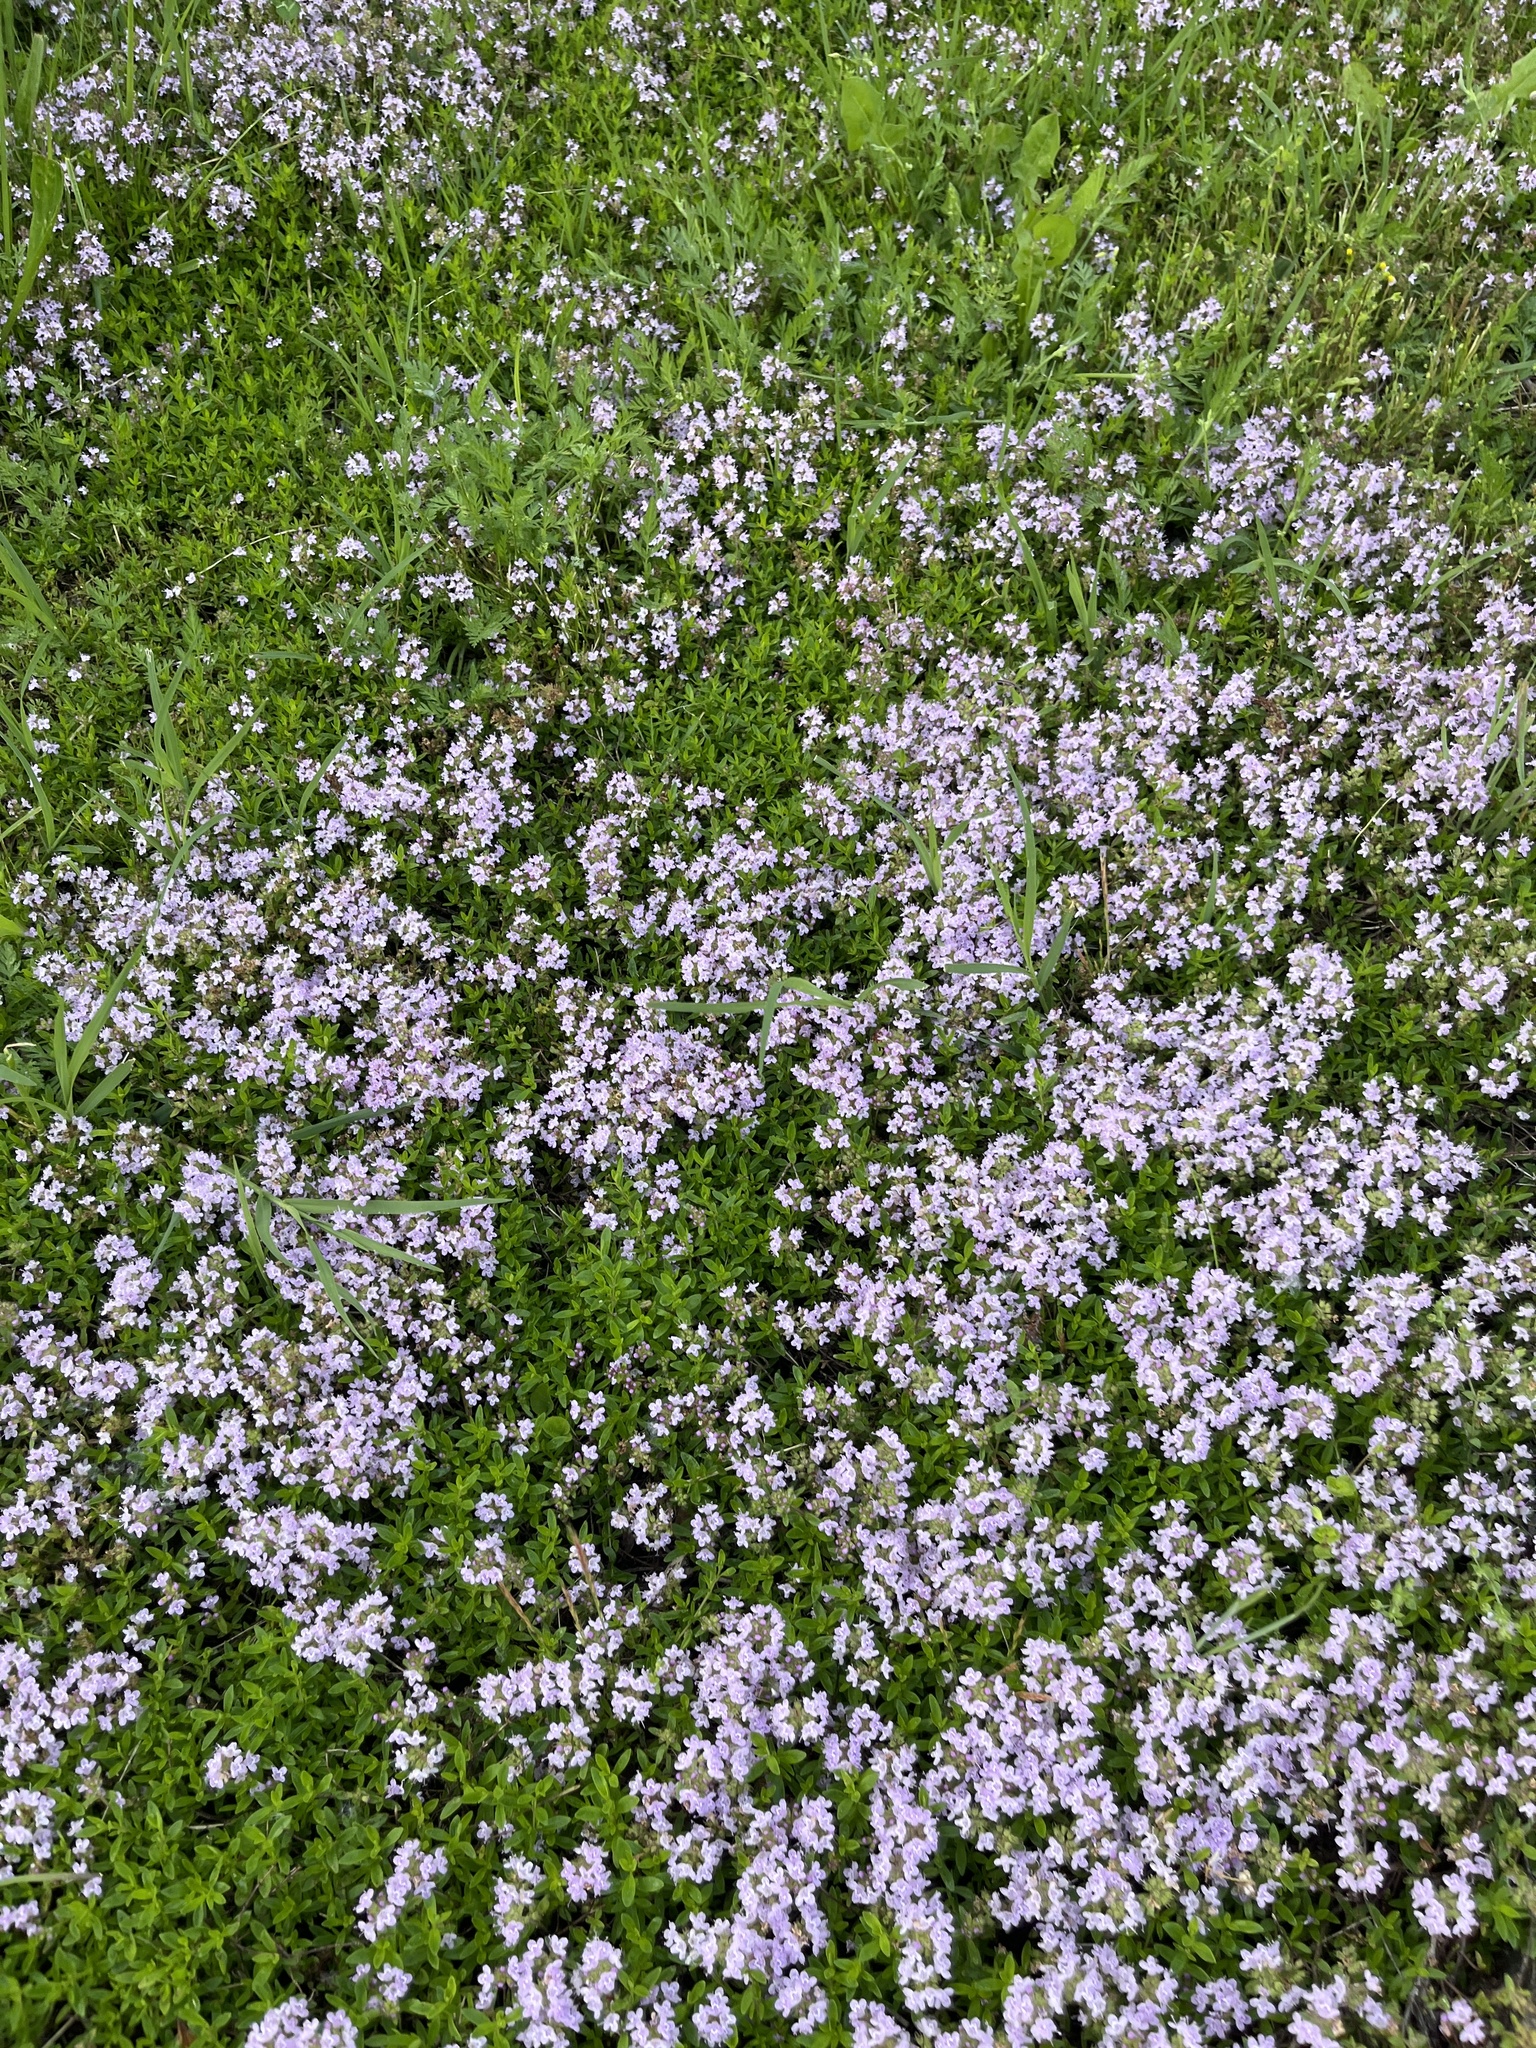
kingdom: Plantae
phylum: Tracheophyta
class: Magnoliopsida
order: Lamiales
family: Lamiaceae
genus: Thymus
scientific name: Thymus longicaulis
